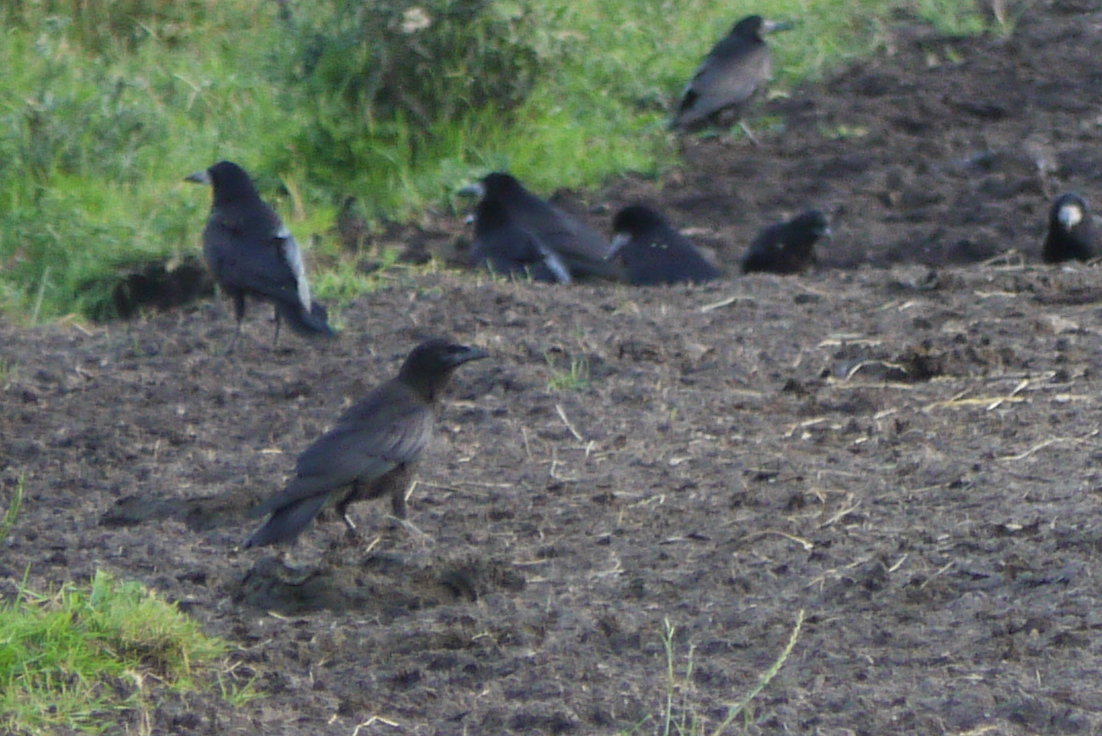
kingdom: Animalia
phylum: Chordata
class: Aves
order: Passeriformes
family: Corvidae
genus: Corvus
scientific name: Corvus corone
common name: Carrion crow
